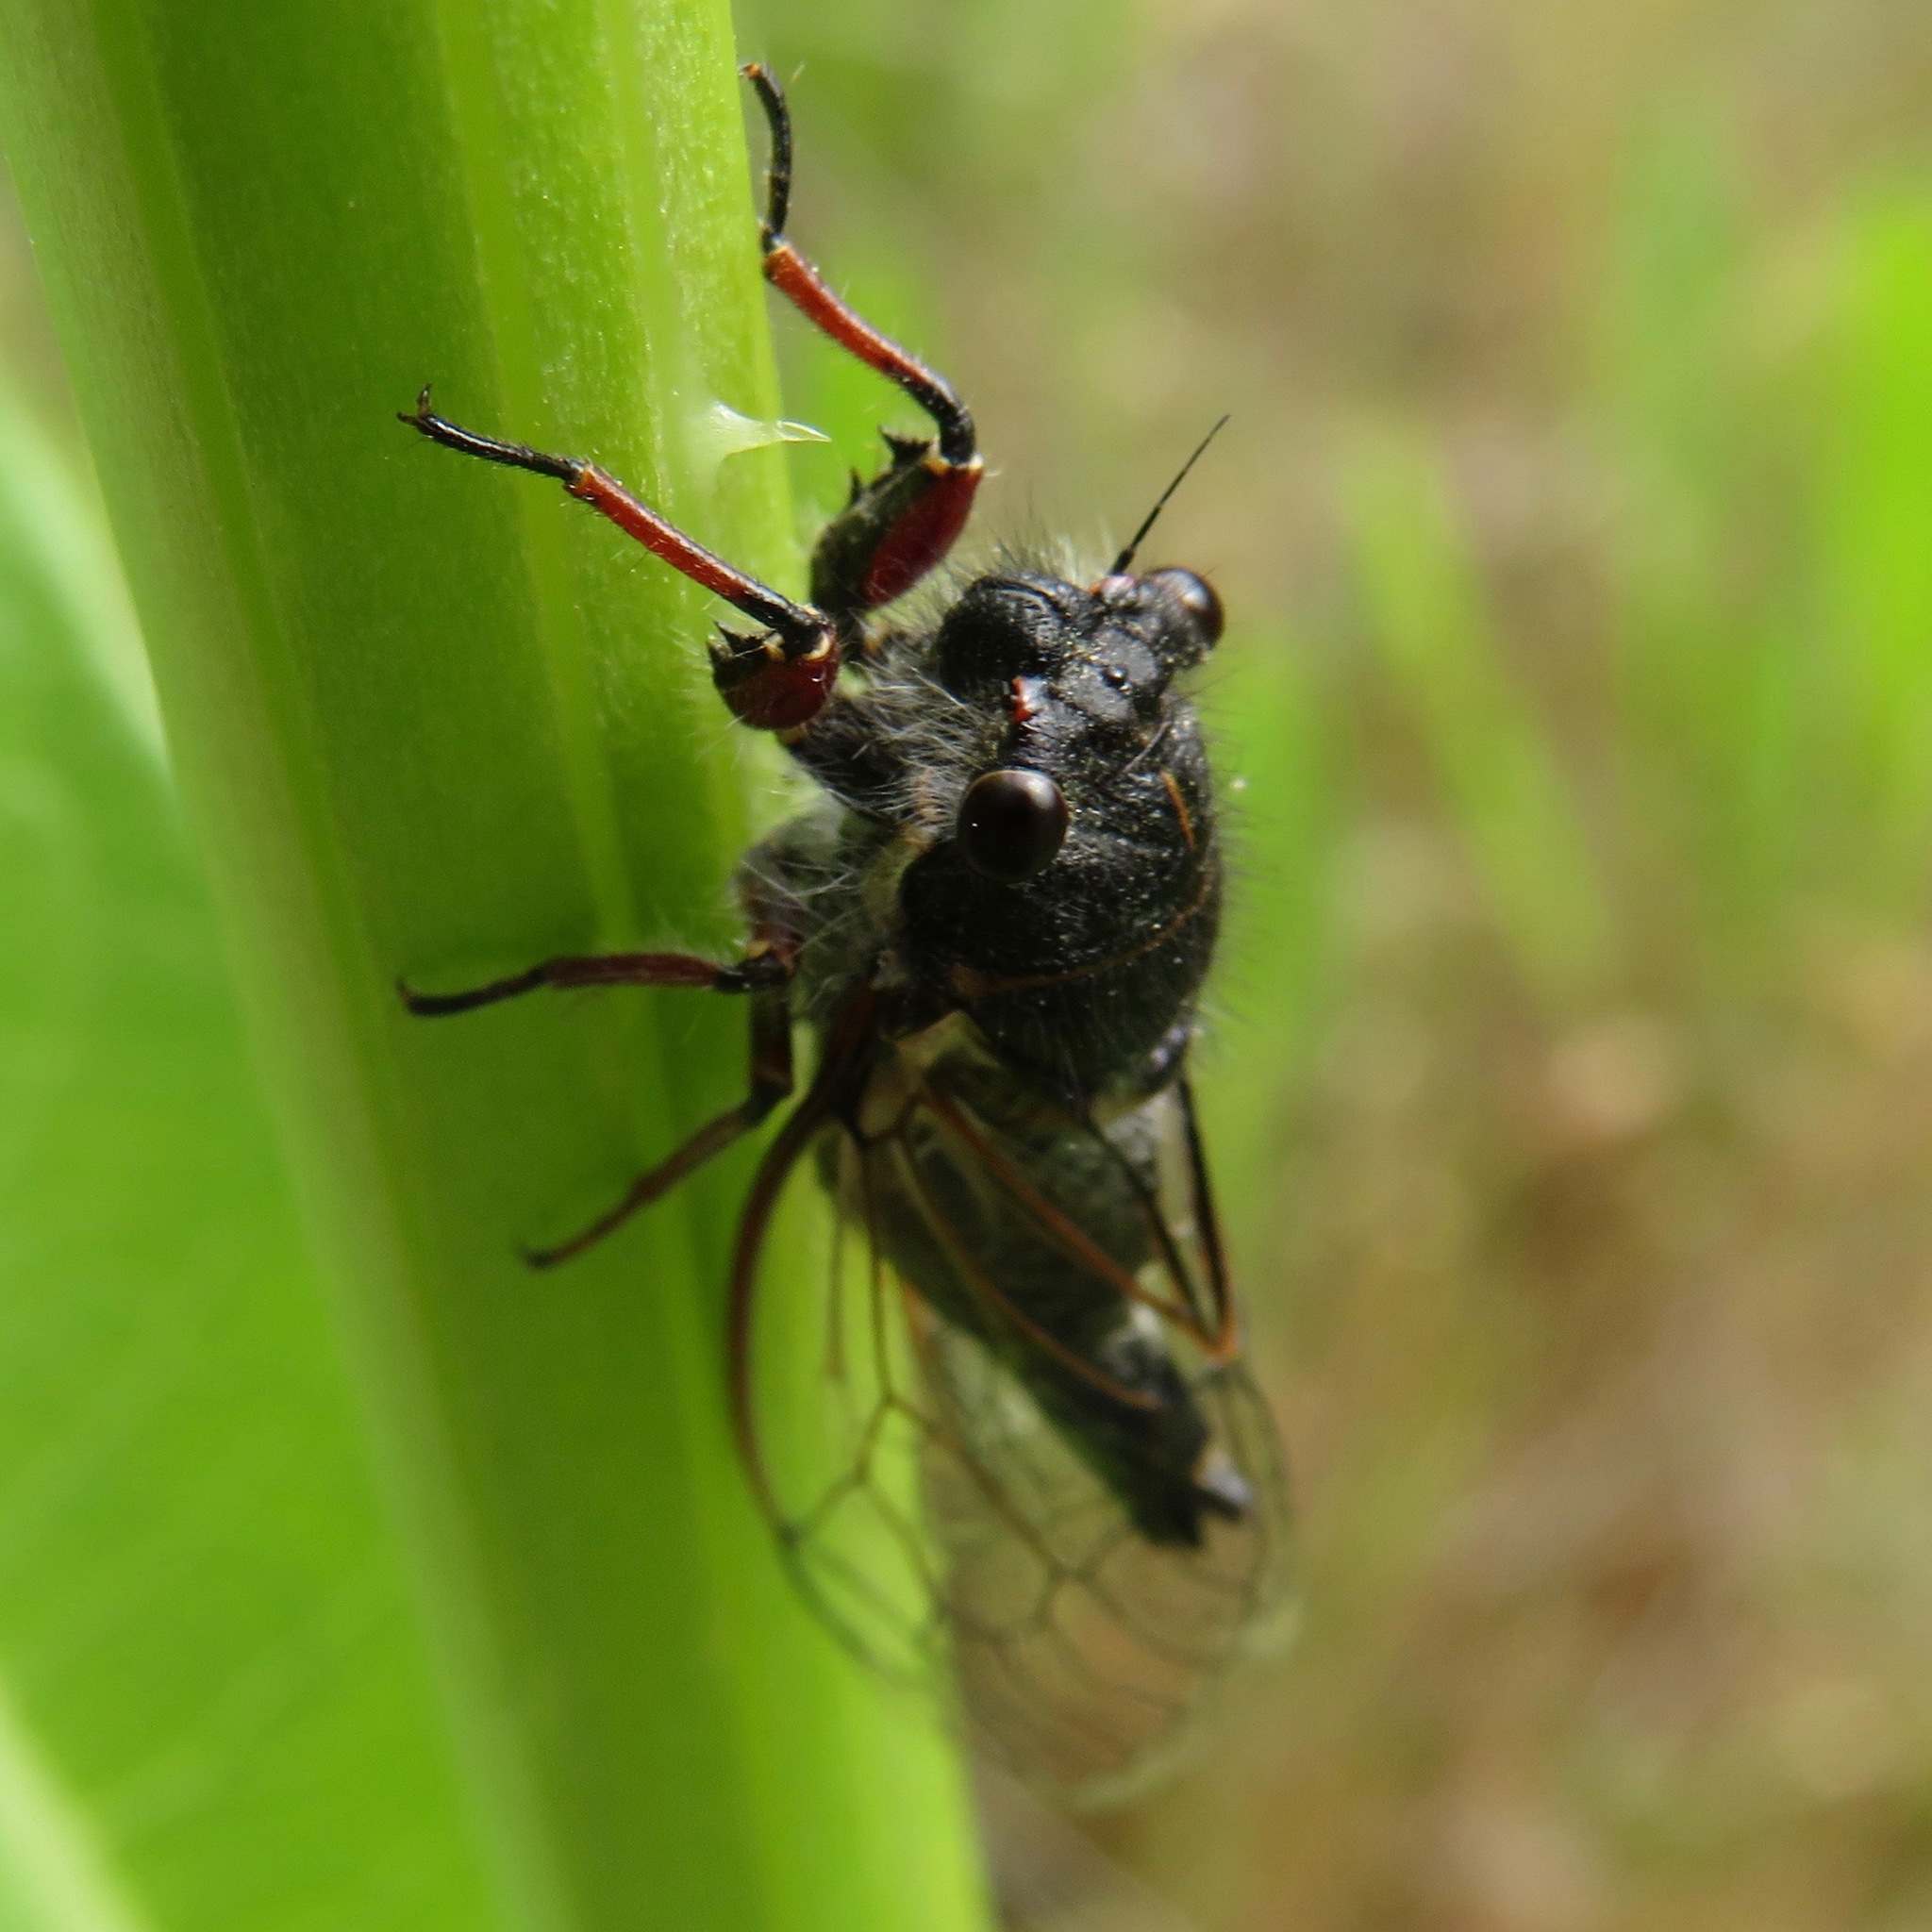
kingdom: Animalia
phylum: Arthropoda
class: Insecta
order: Hemiptera
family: Cicadidae
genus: Platypedia
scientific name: Platypedia minor
